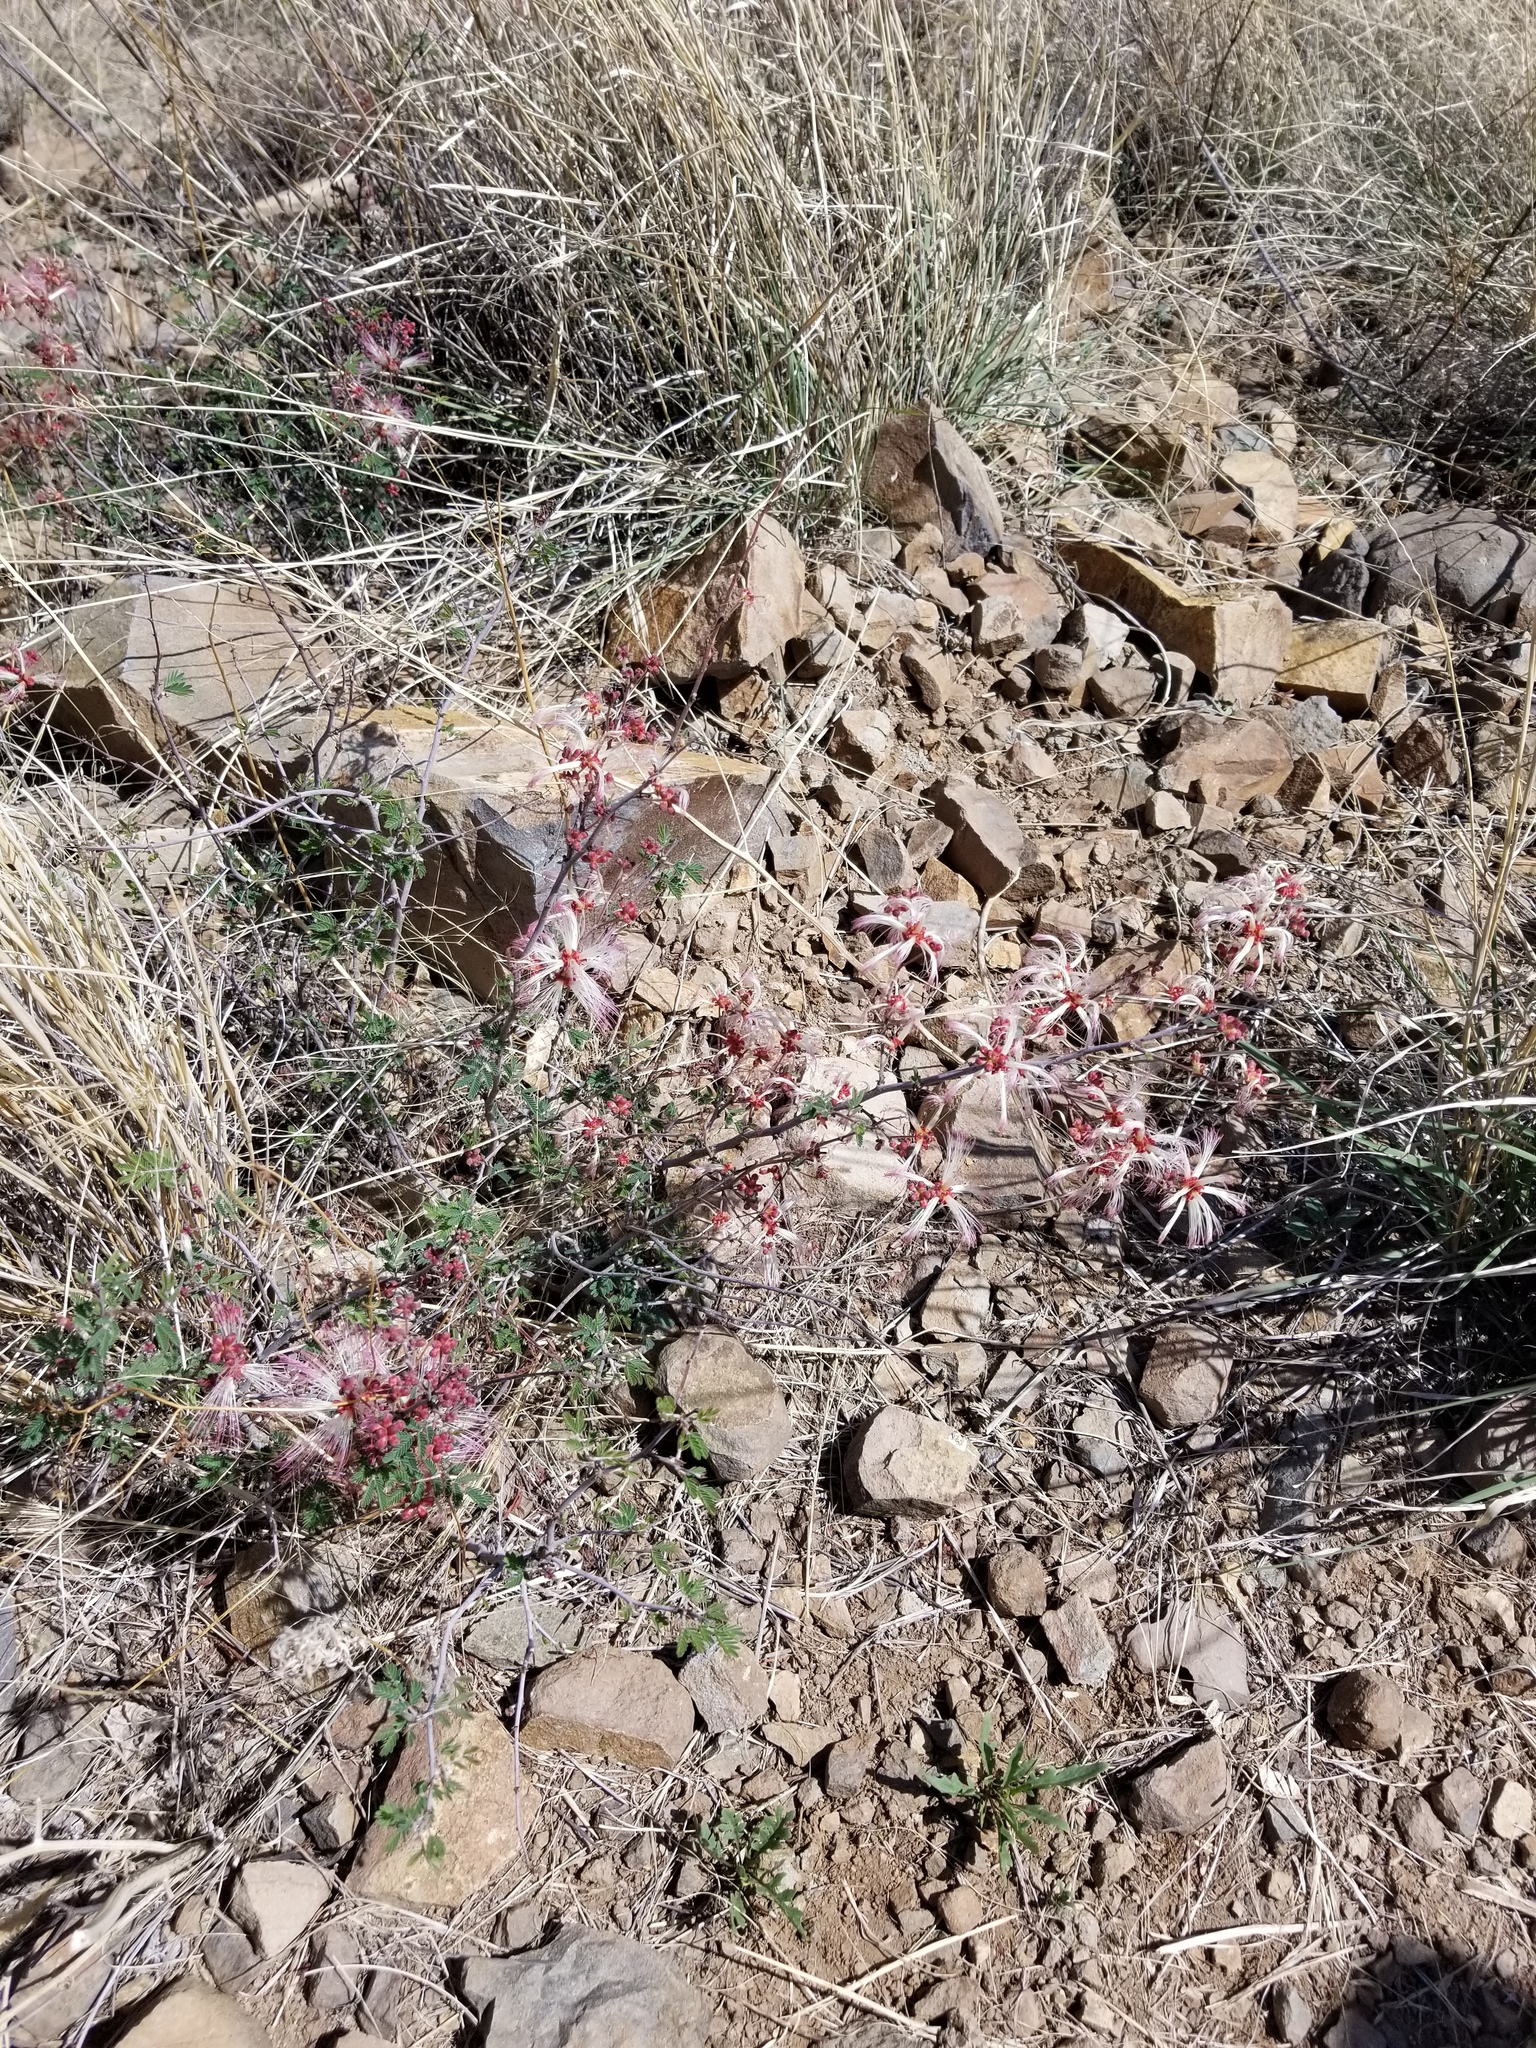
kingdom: Plantae
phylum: Tracheophyta
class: Magnoliopsida
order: Fabales
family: Fabaceae
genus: Calliandra
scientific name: Calliandra eriophylla
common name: Fairy-duster
